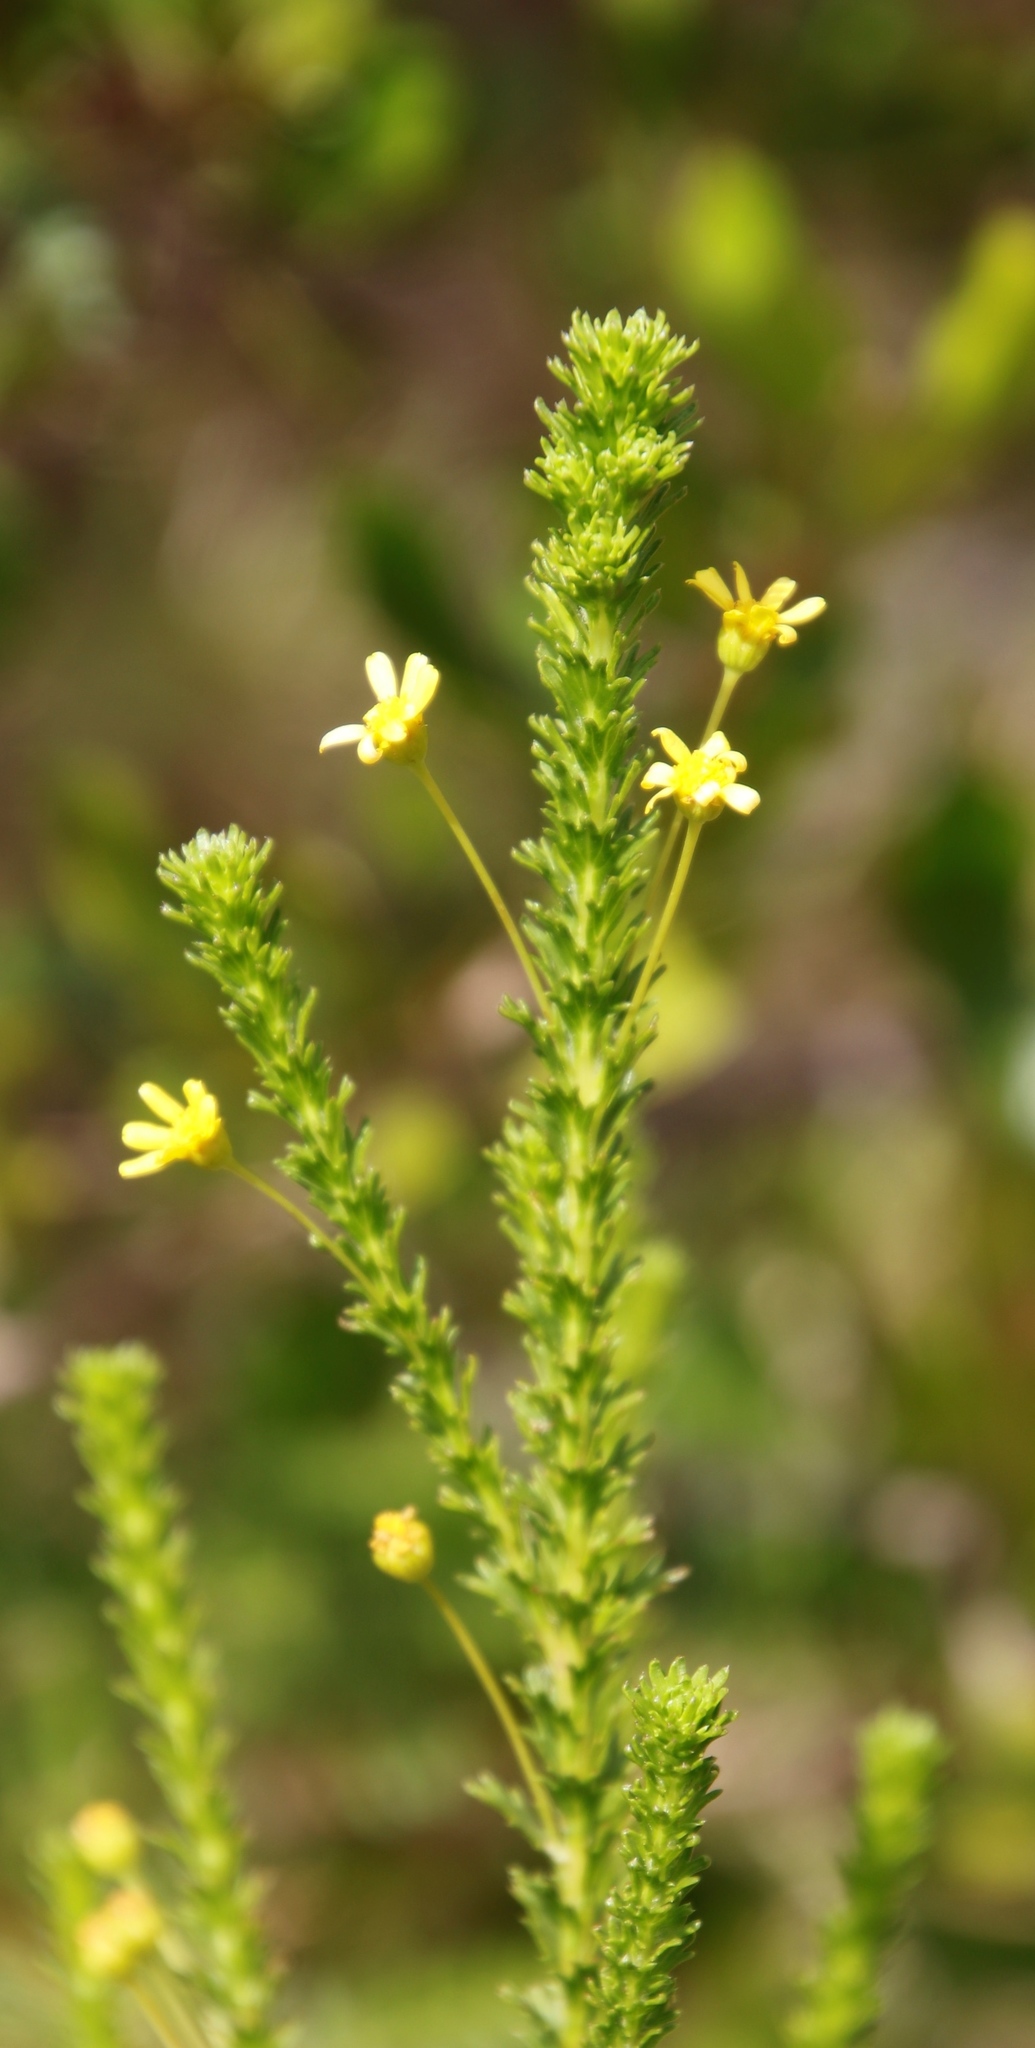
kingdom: Plantae
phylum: Tracheophyta
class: Magnoliopsida
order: Asterales
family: Asteraceae
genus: Euryops
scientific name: Euryops virgineus
